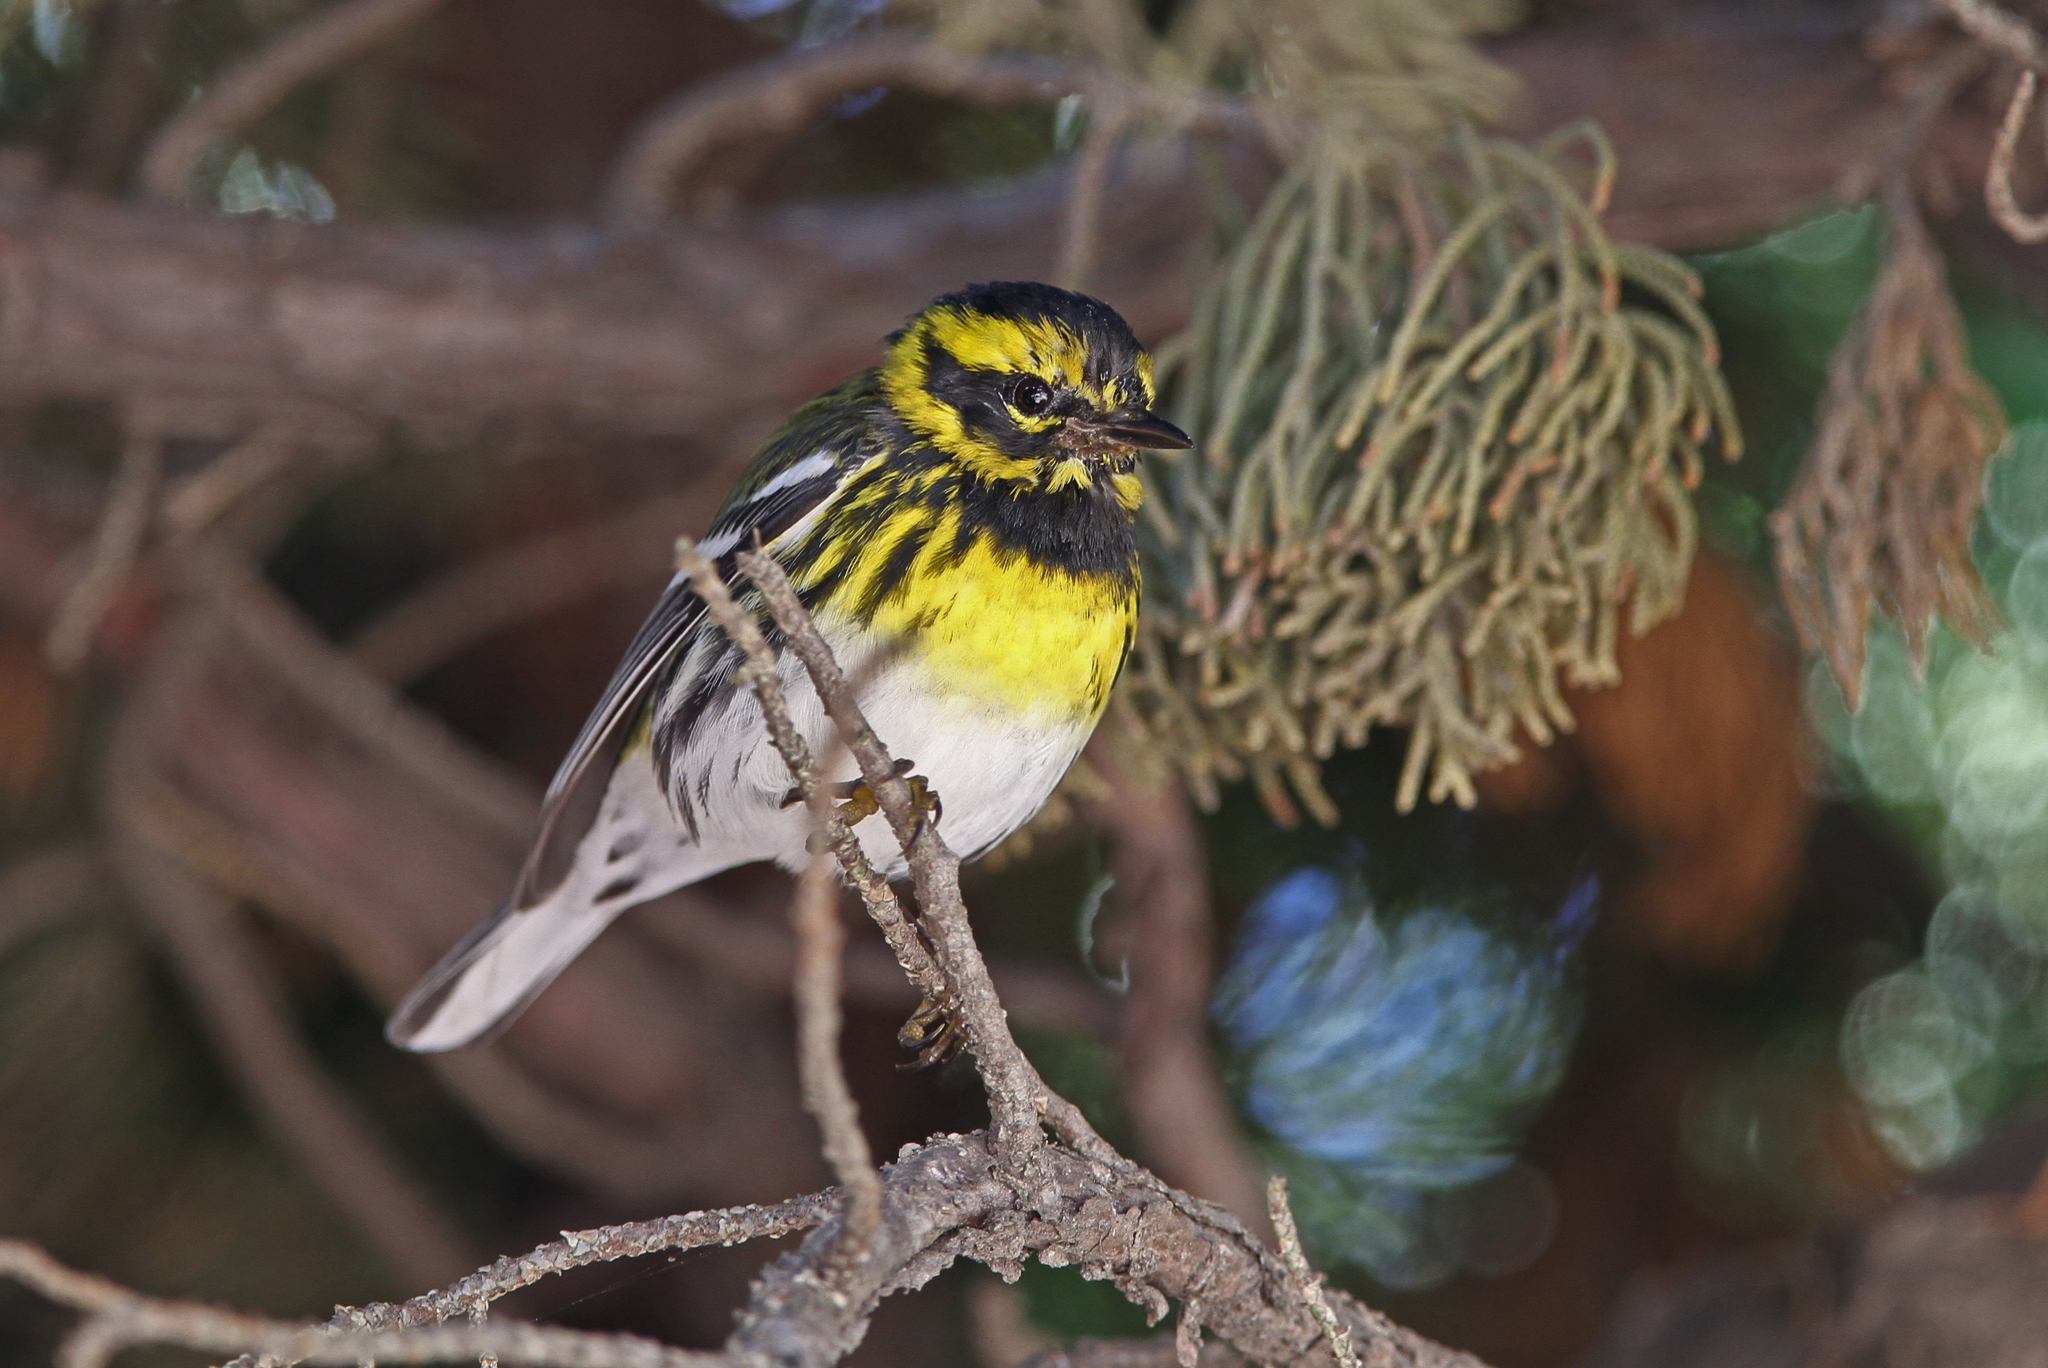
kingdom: Animalia
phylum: Chordata
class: Aves
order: Passeriformes
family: Parulidae
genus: Setophaga
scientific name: Setophaga townsendi
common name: Townsend's warbler
